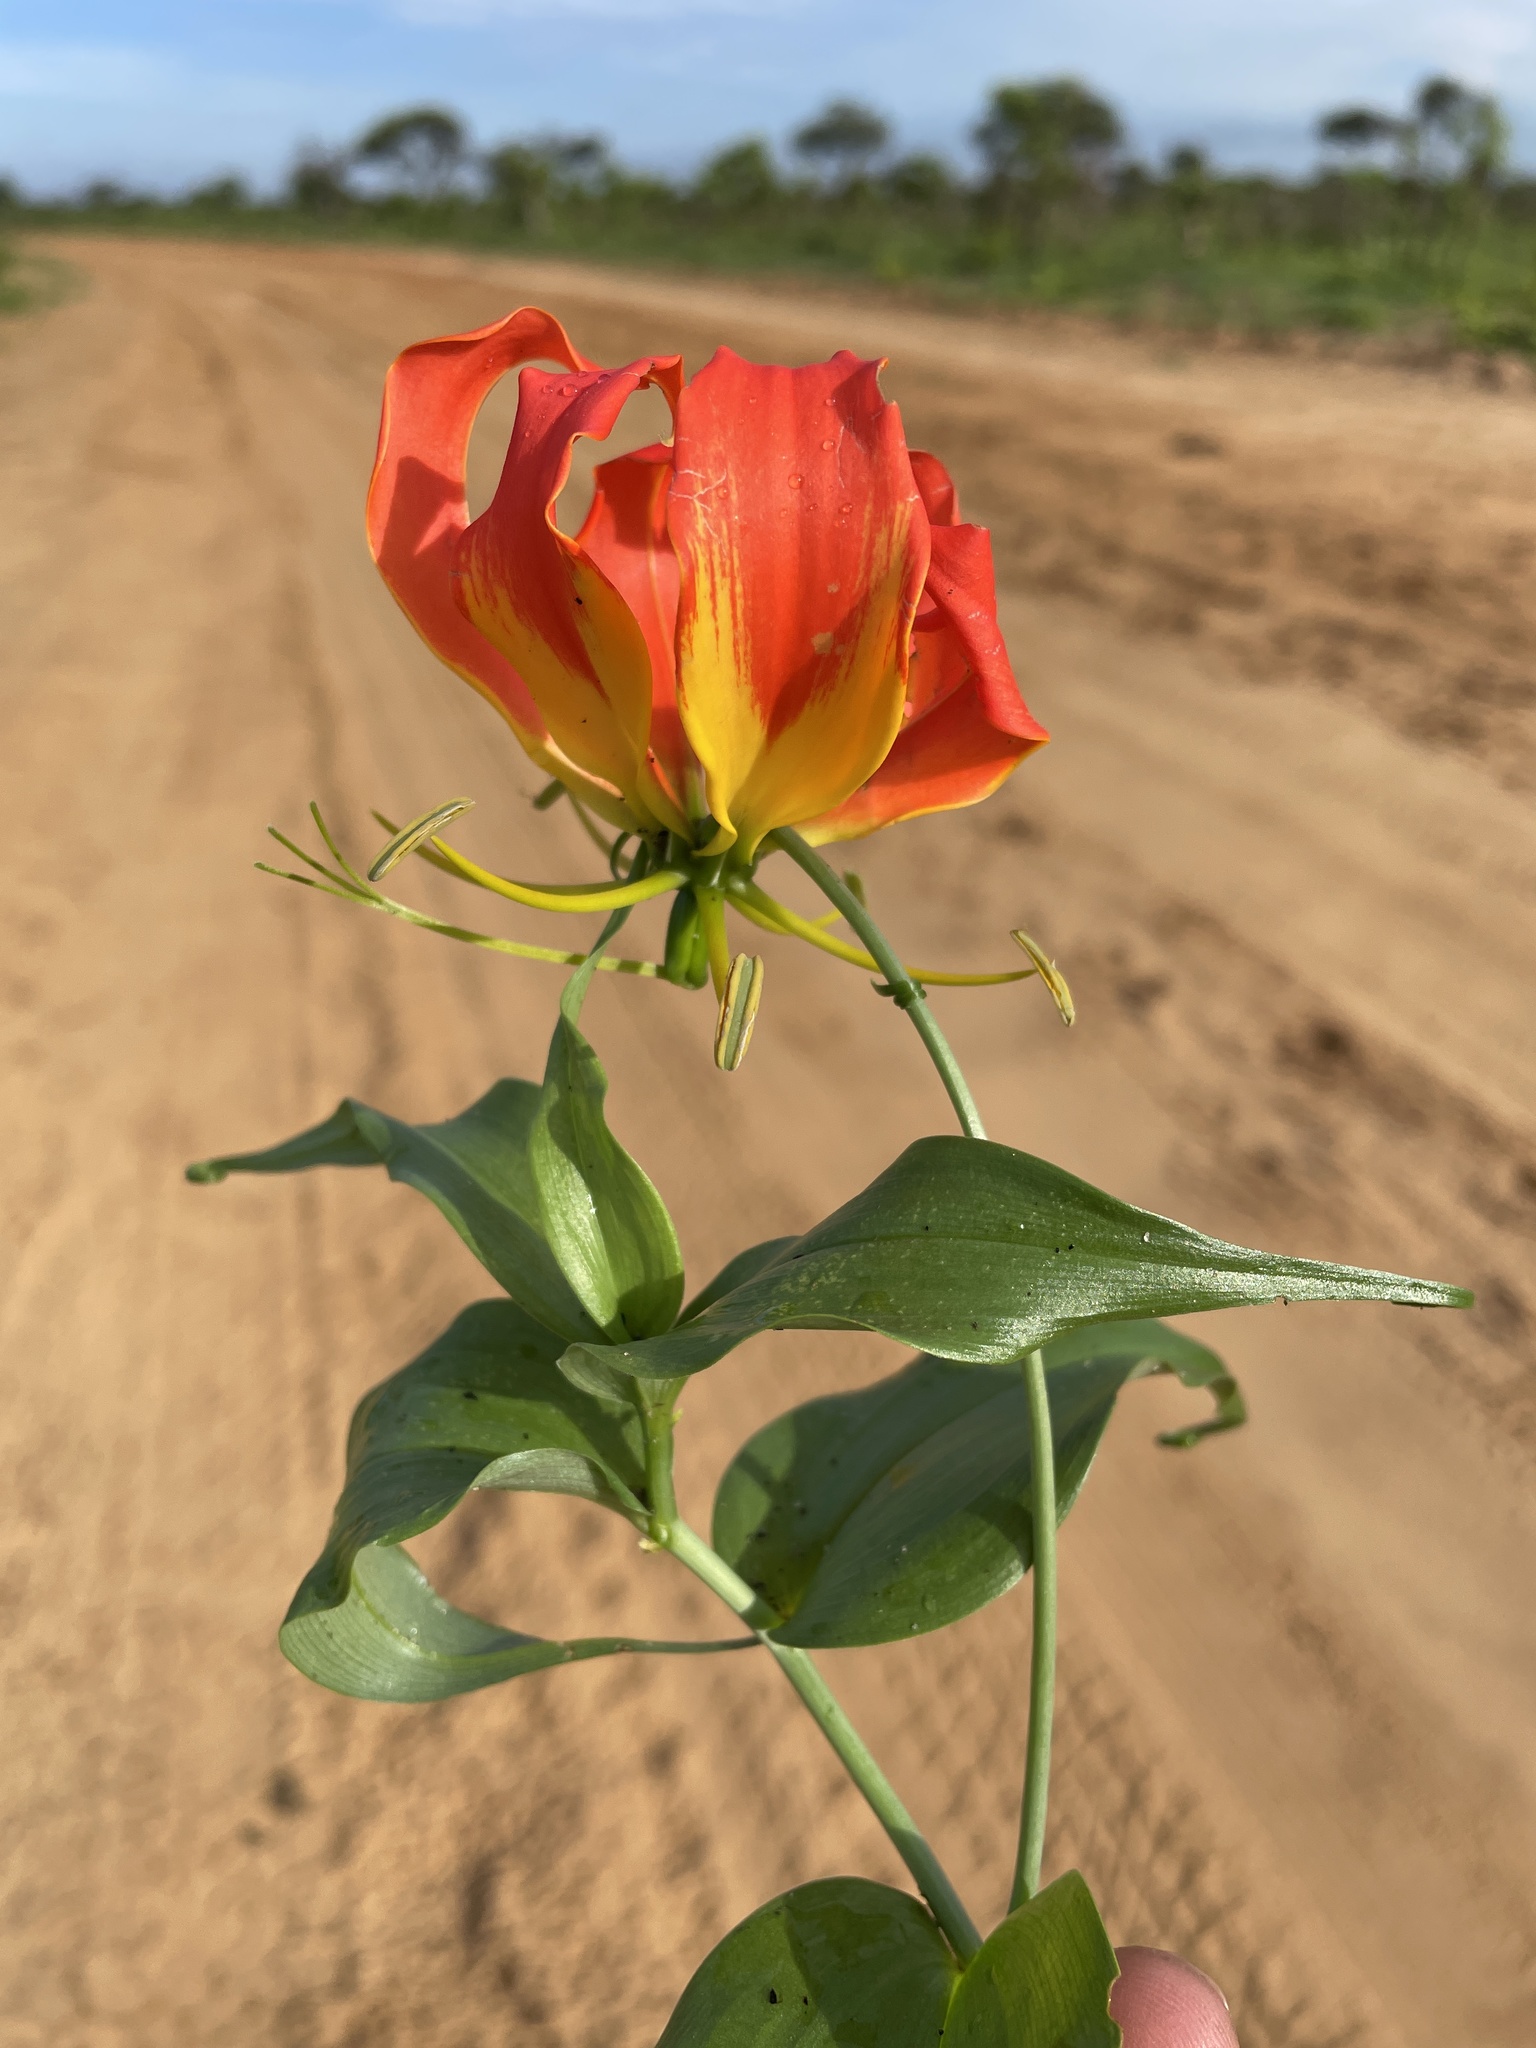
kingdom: Plantae
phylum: Tracheophyta
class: Liliopsida
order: Liliales
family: Colchicaceae
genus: Gloriosa
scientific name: Gloriosa superba
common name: Flame lily
